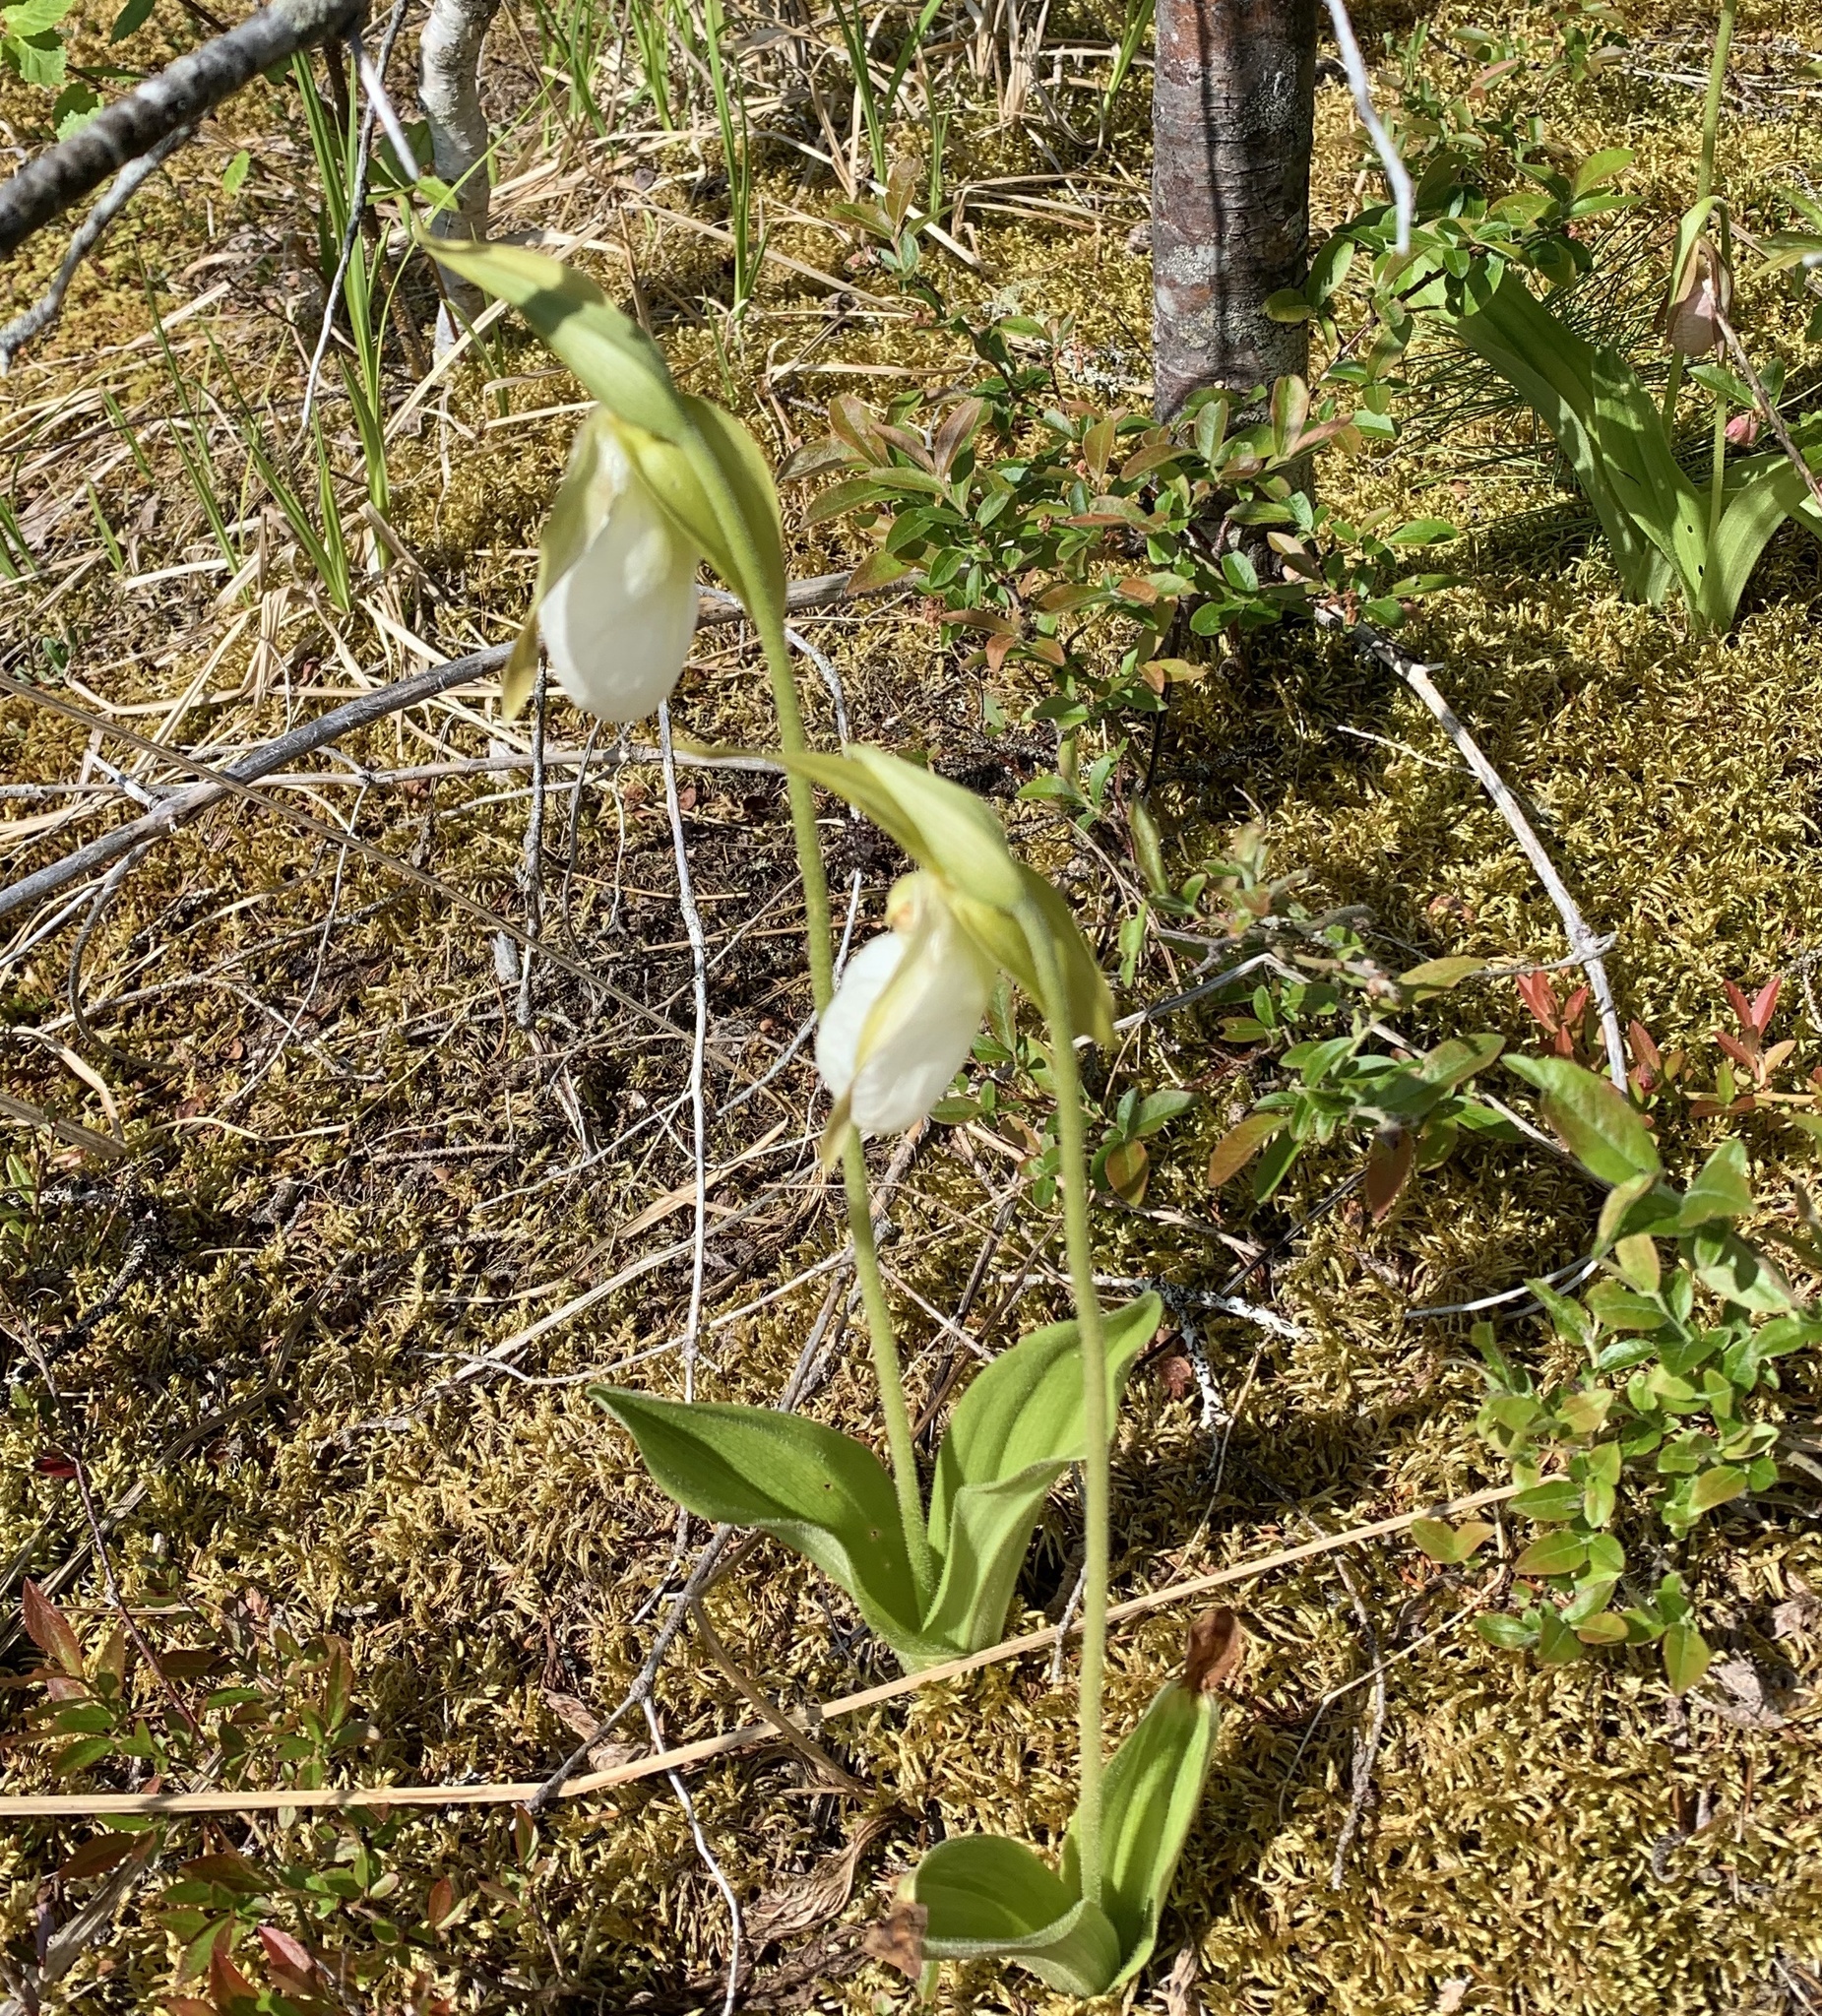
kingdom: Plantae
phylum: Tracheophyta
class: Liliopsida
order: Asparagales
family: Orchidaceae
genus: Cypripedium
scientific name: Cypripedium acaule
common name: Pink lady's-slipper
